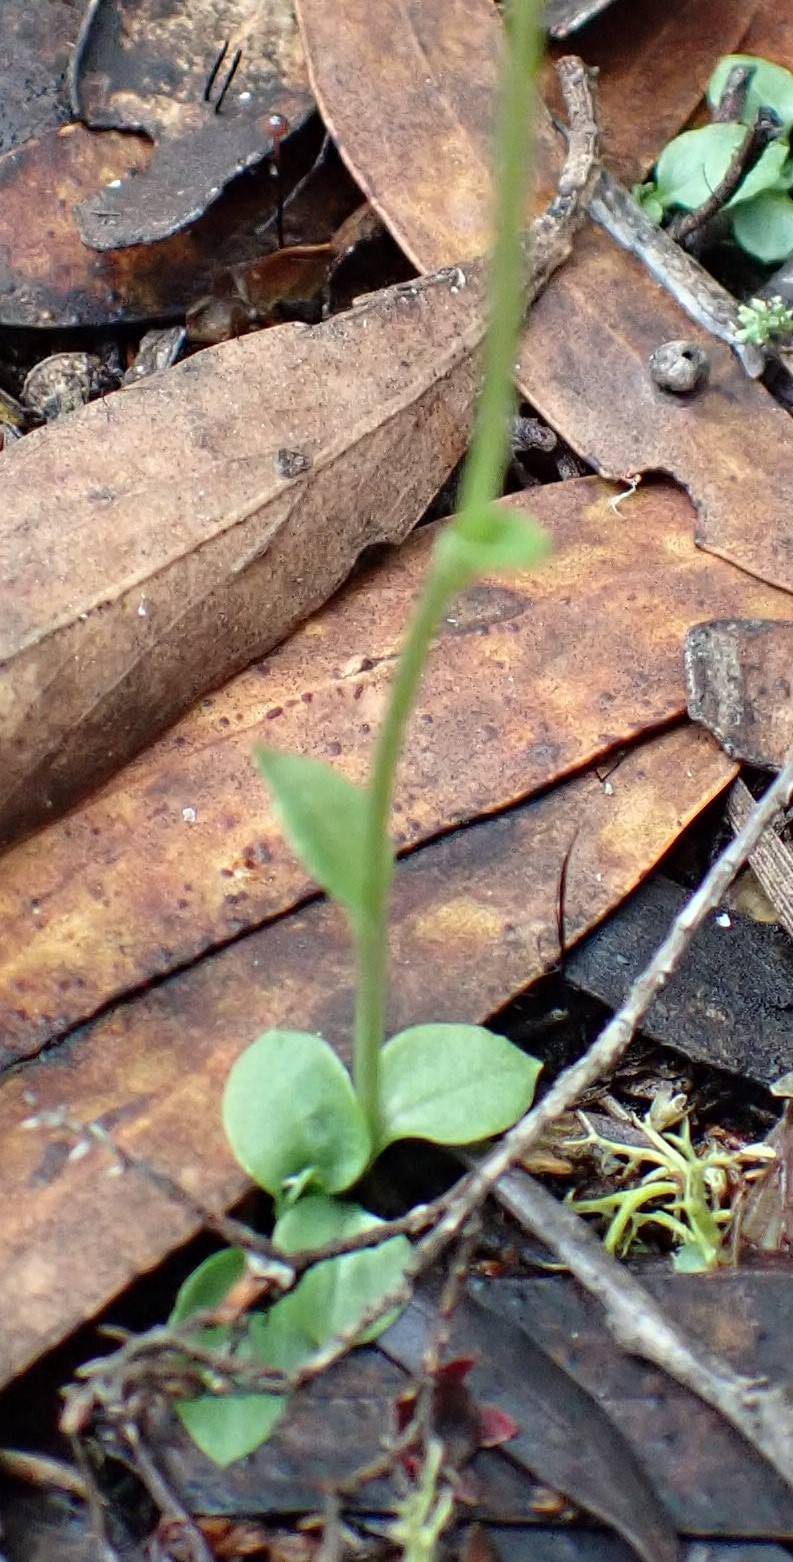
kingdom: Plantae
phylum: Tracheophyta
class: Liliopsida
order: Asparagales
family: Orchidaceae
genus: Pterostylis
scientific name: Pterostylis pedoglossa
